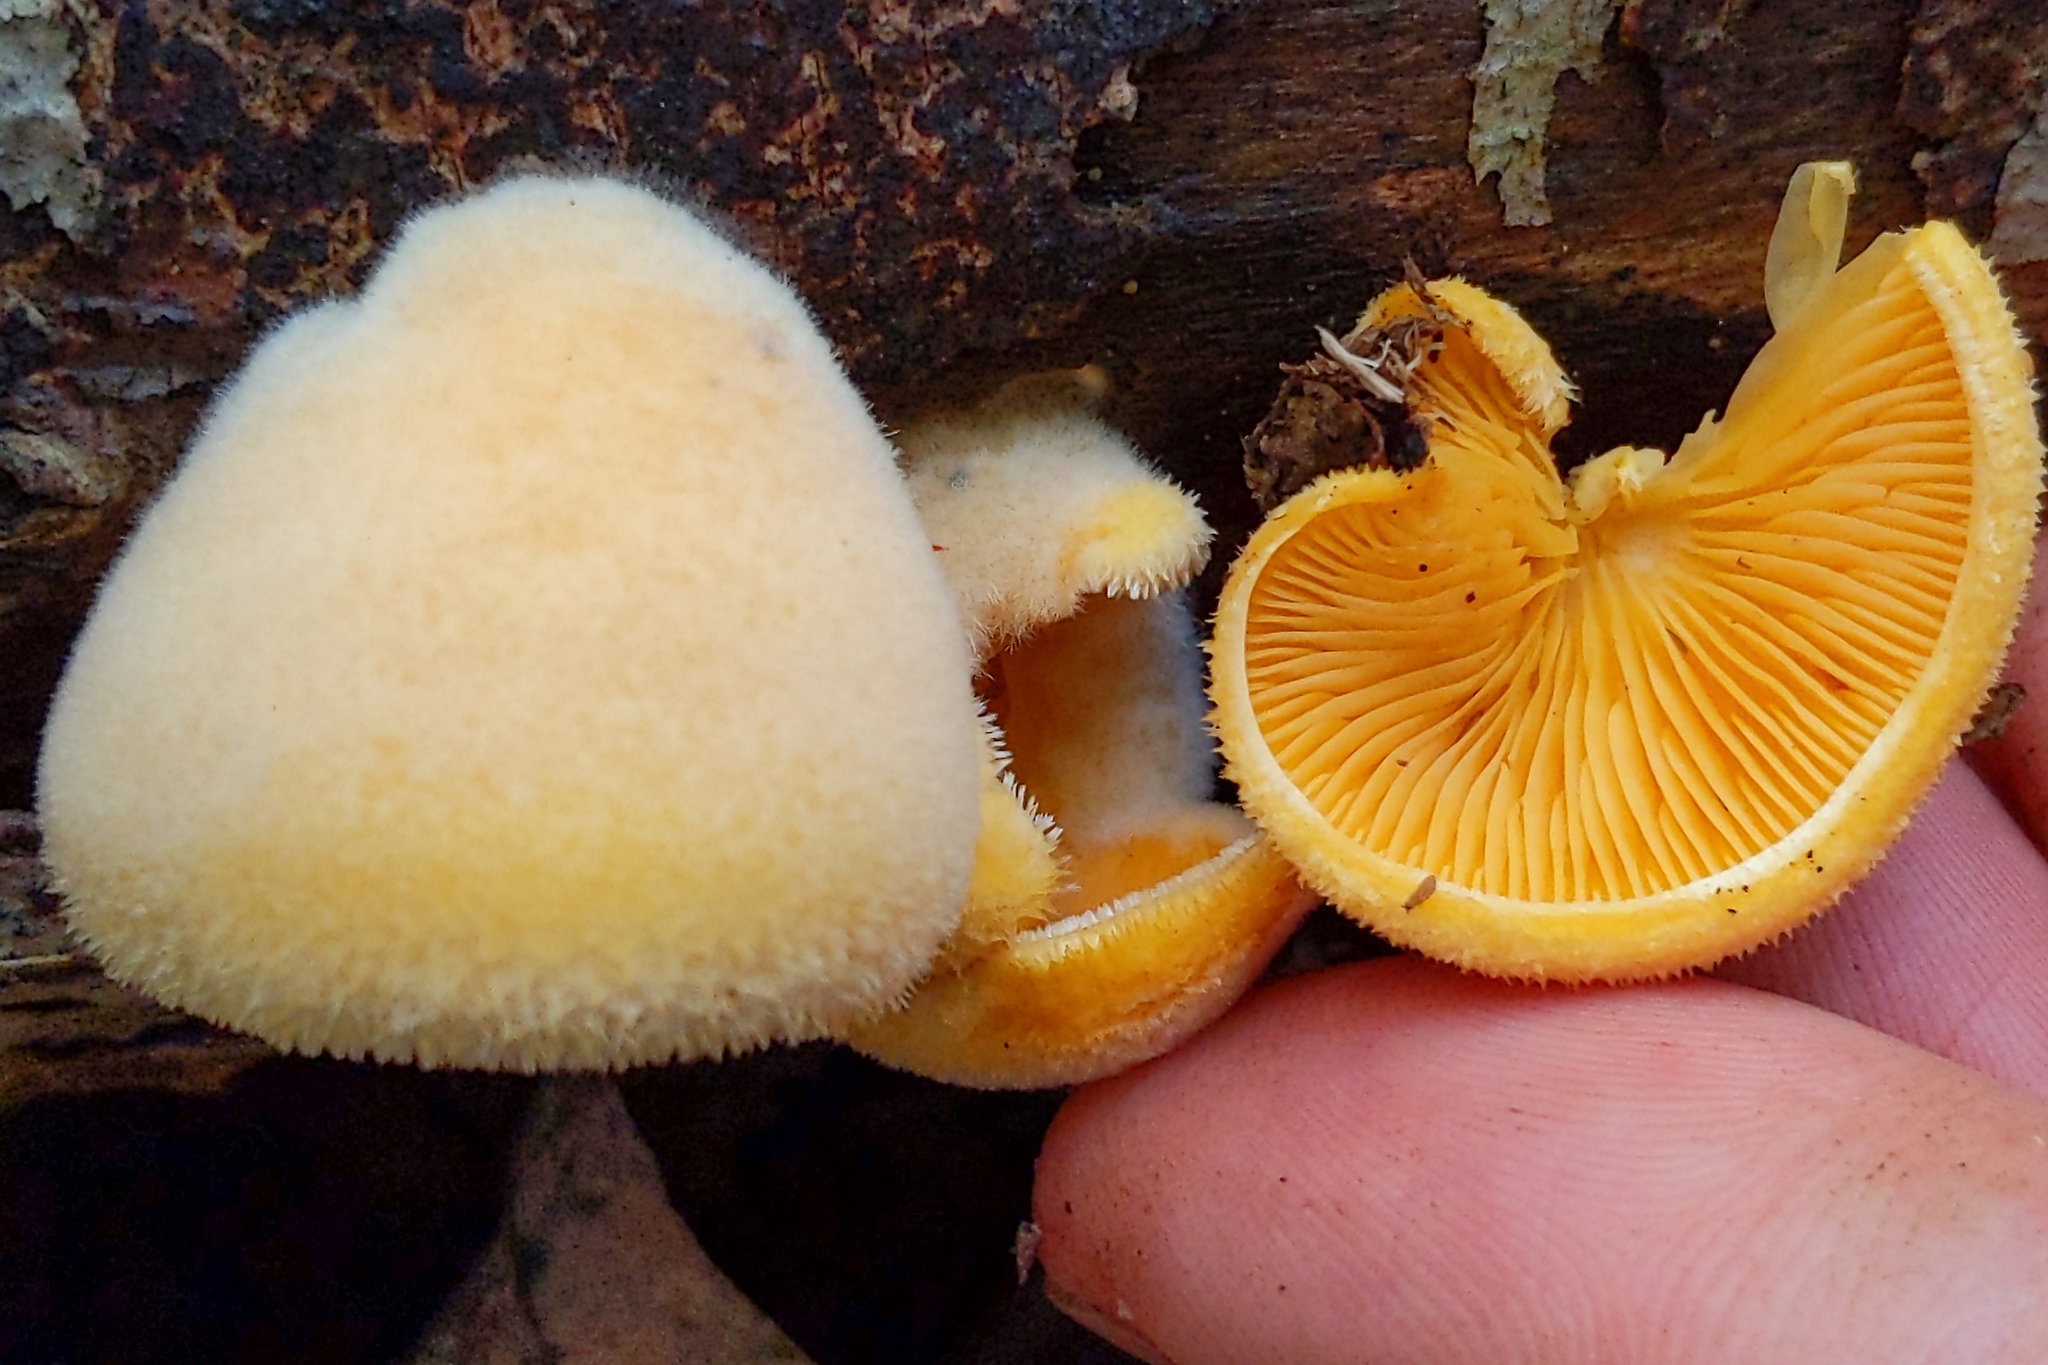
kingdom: Fungi
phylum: Basidiomycota
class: Agaricomycetes
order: Agaricales
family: Phyllotopsidaceae
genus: Phyllotopsis
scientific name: Phyllotopsis nidulans
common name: Orange mock oyster
